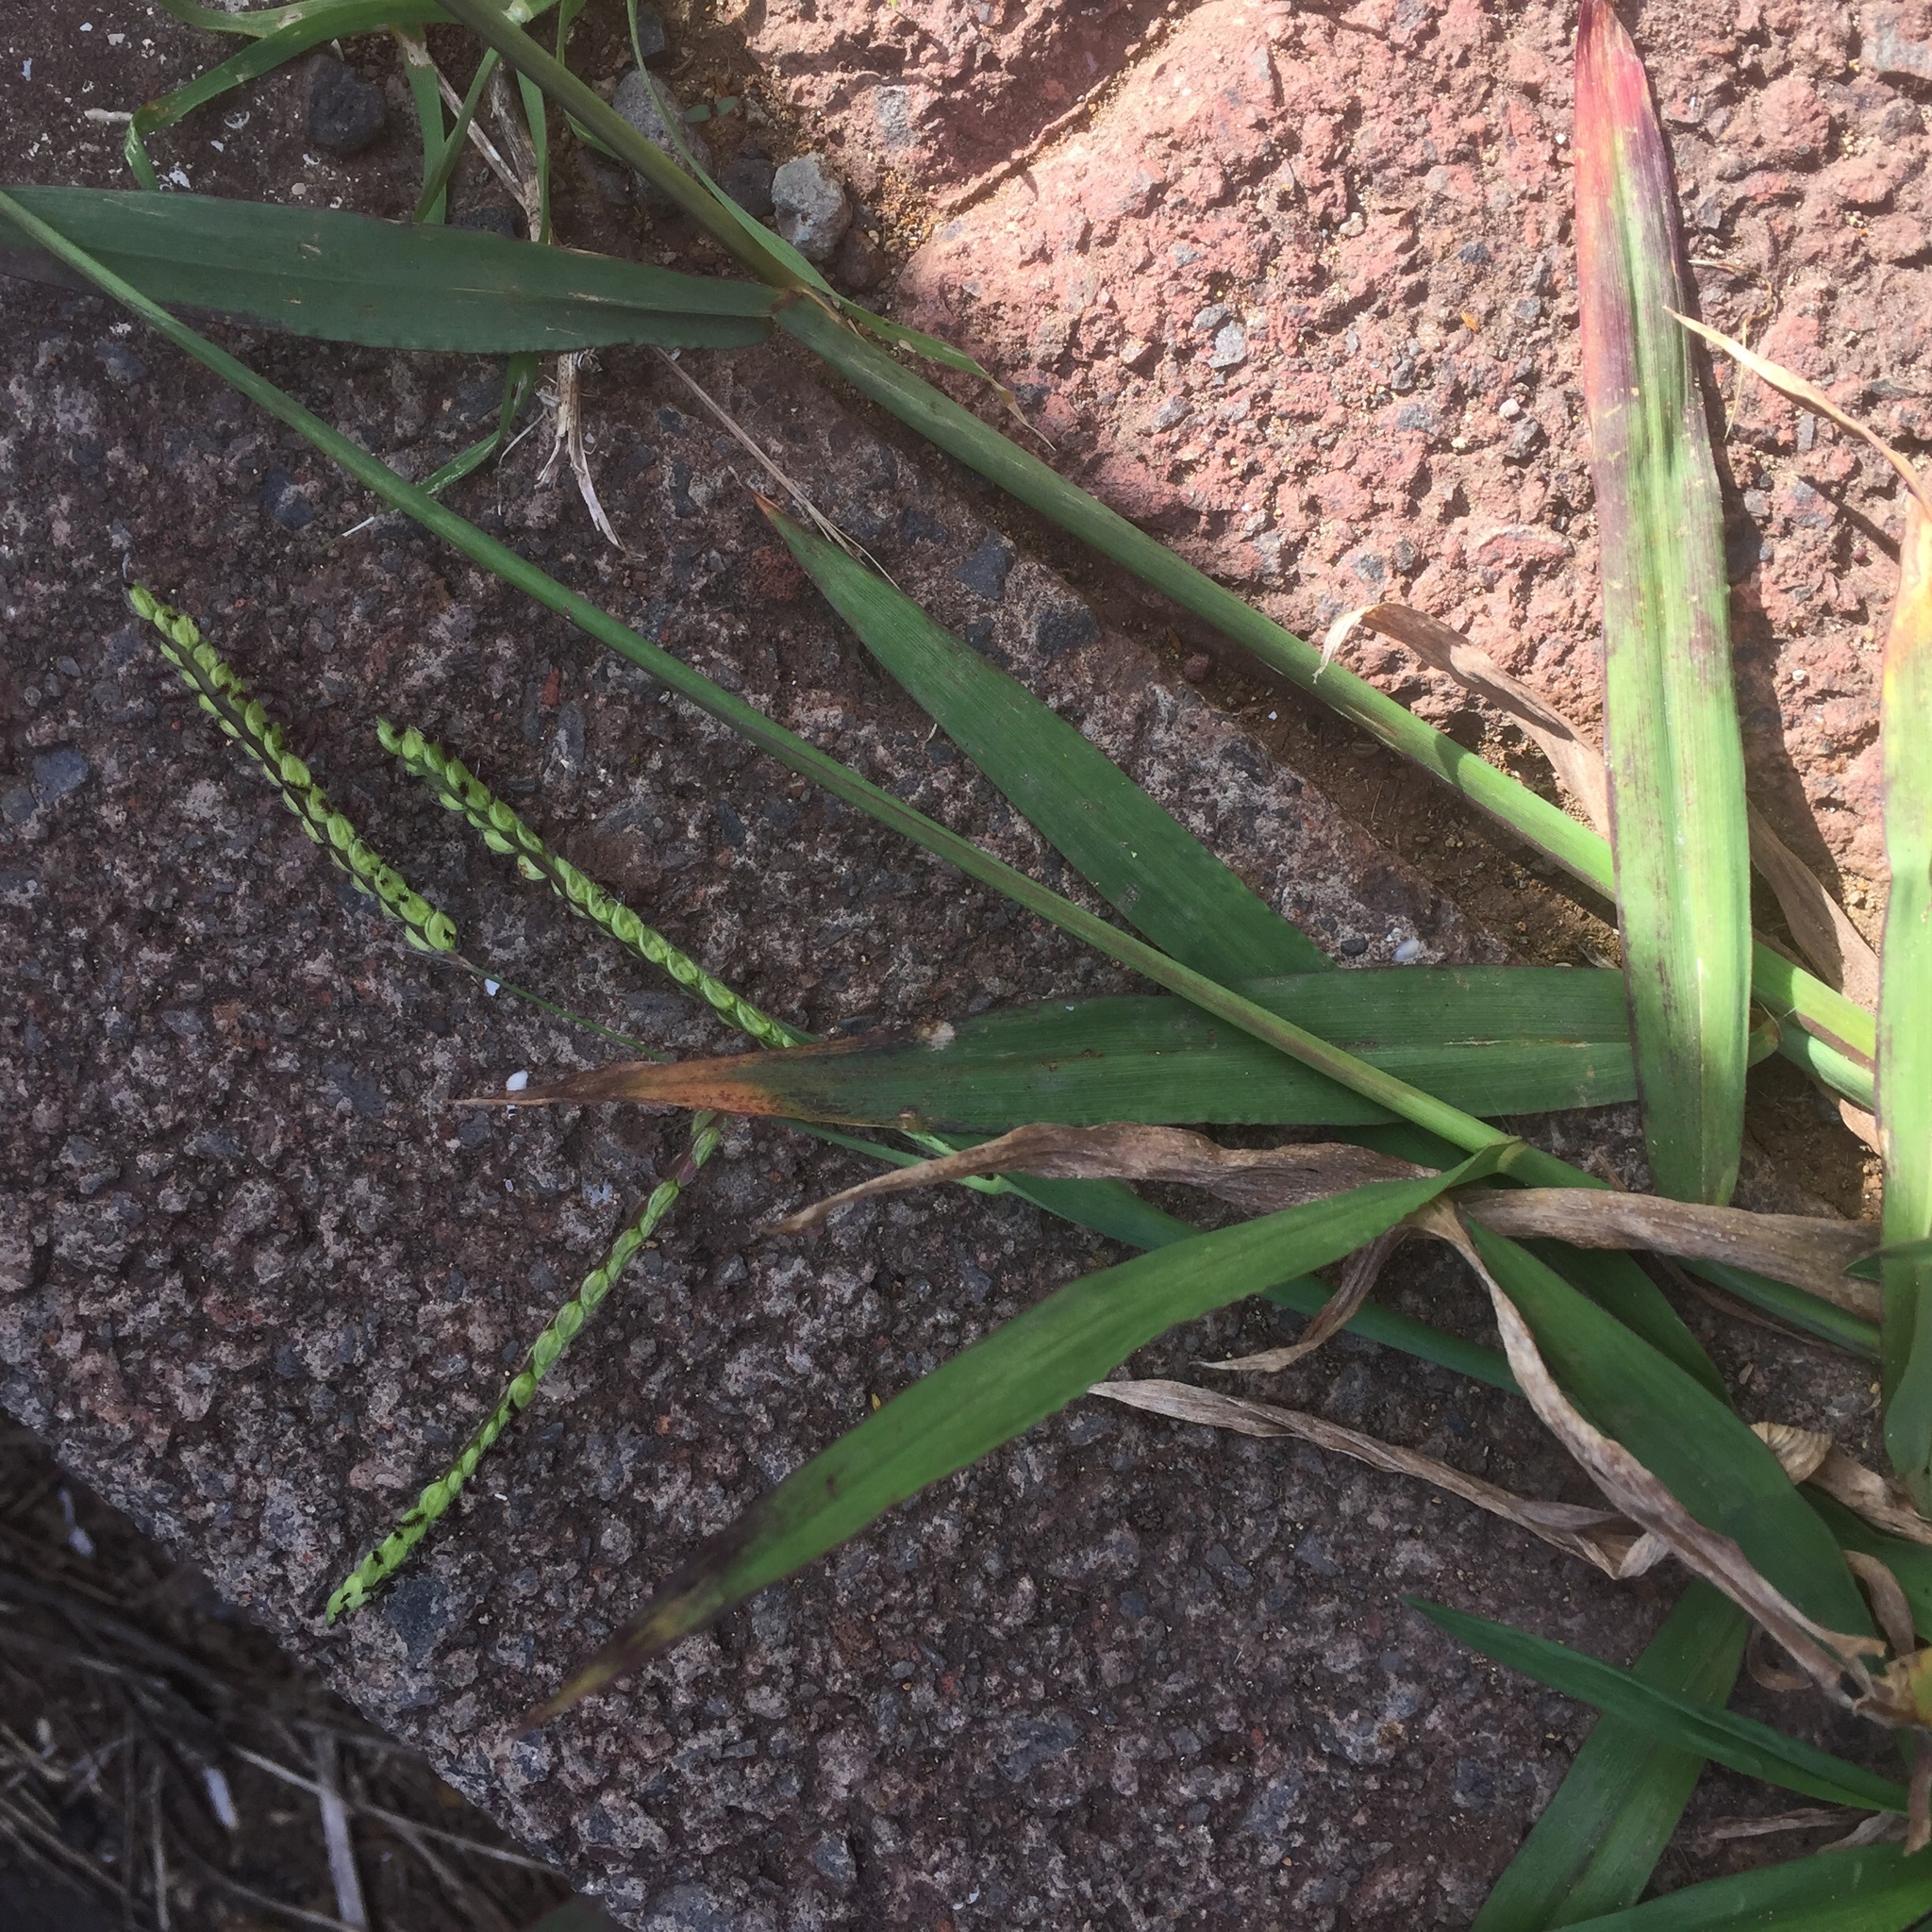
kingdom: Plantae
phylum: Tracheophyta
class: Liliopsida
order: Poales
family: Poaceae
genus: Paspalum
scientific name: Paspalum dilatatum
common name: Dallisgrass
